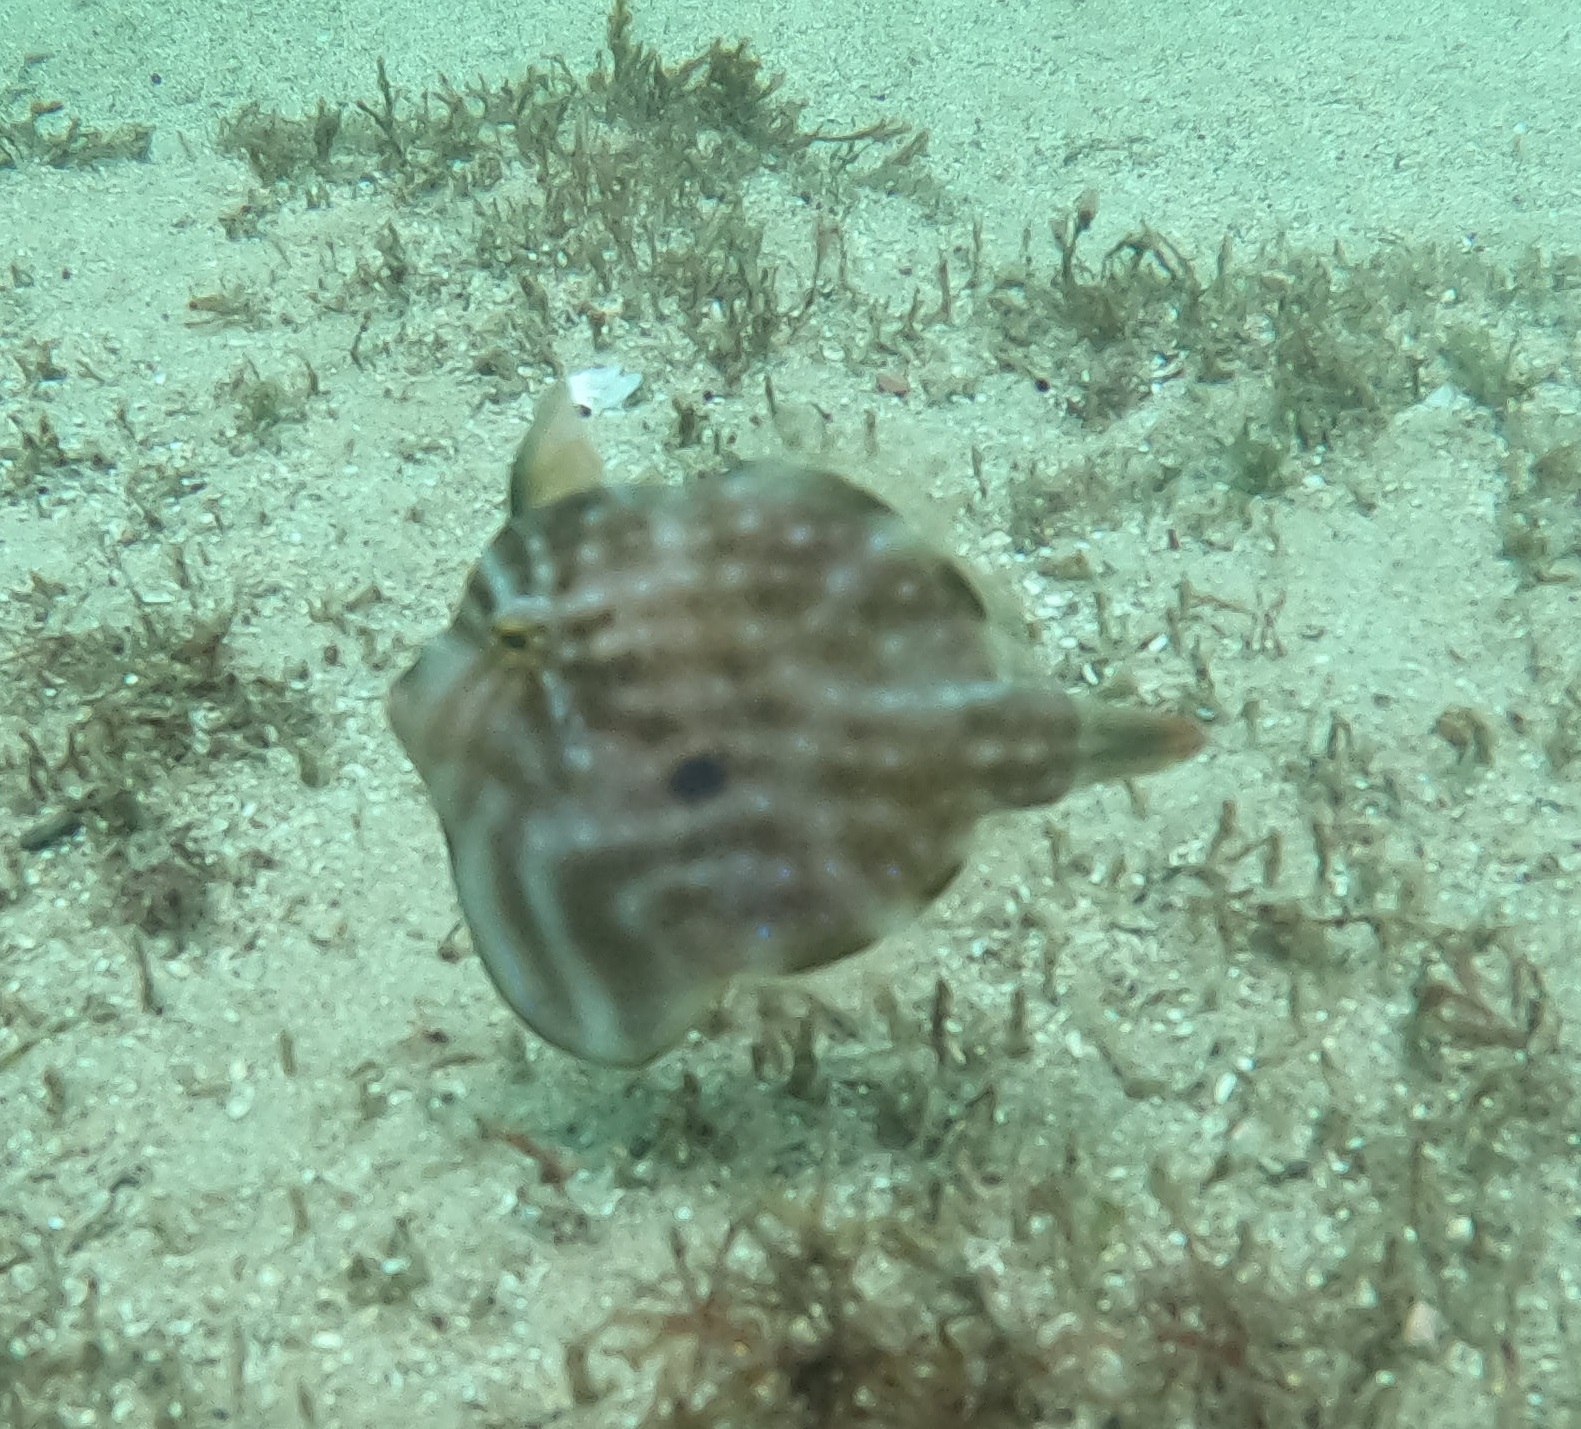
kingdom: Animalia
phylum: Chordata
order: Tetraodontiformes
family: Monacanthidae
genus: Brachaluteres
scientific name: Brachaluteres jacksonianus
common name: Pigmy leatherjacket
